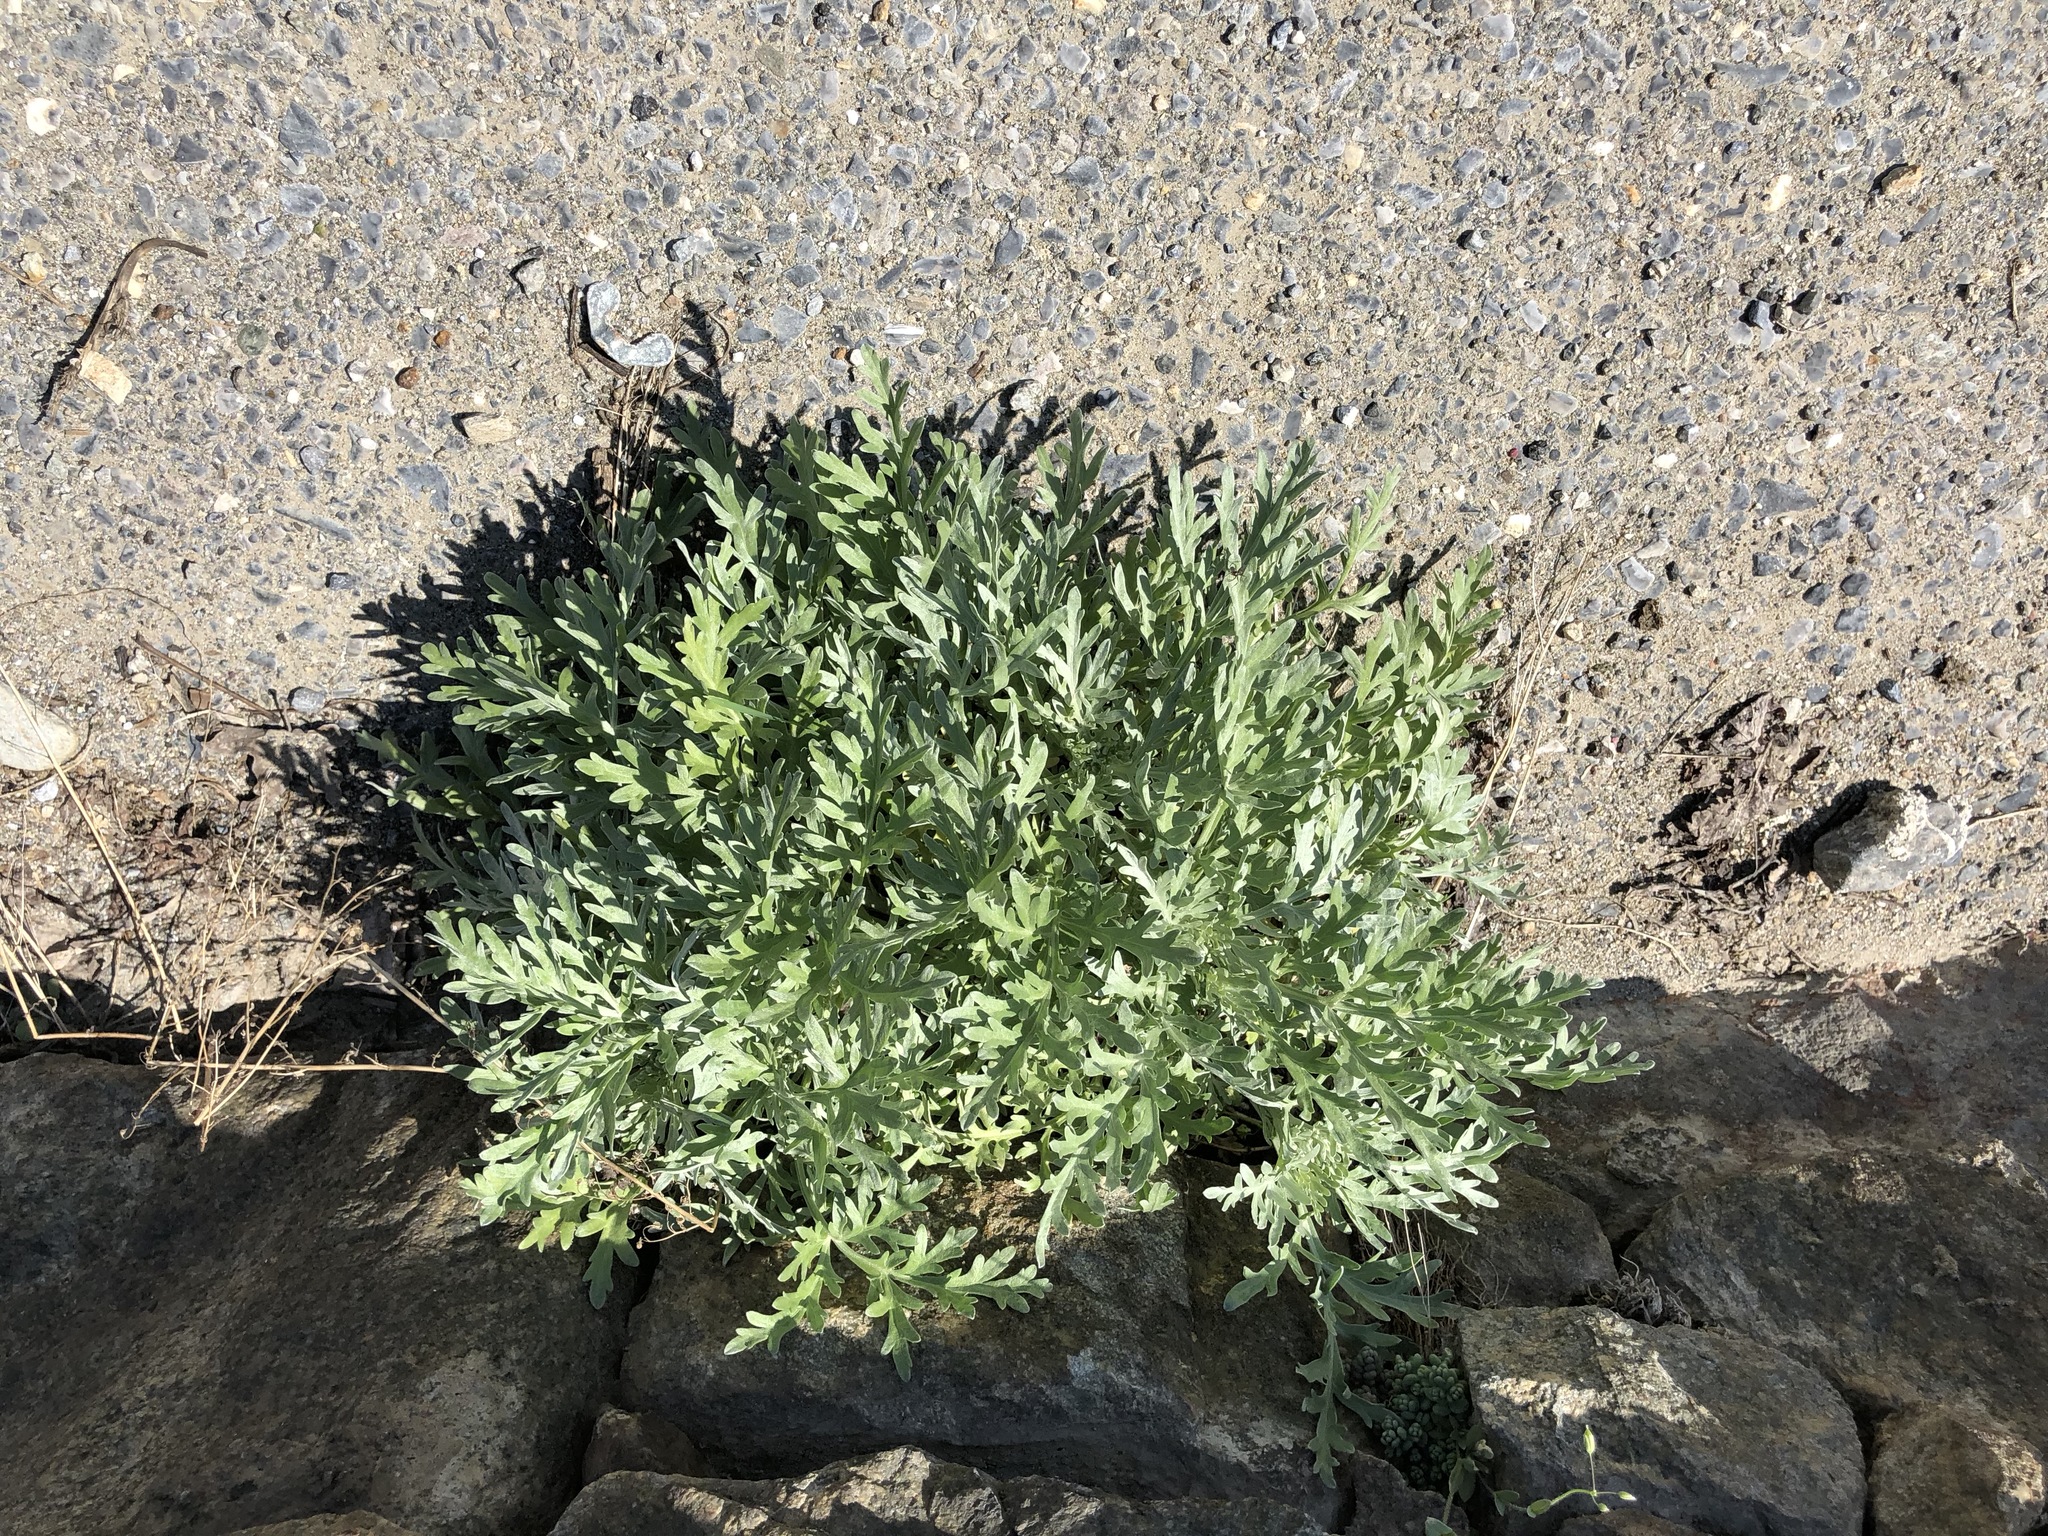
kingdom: Plantae
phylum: Tracheophyta
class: Magnoliopsida
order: Asterales
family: Asteraceae
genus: Artemisia
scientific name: Artemisia absinthium
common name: Wormwood
